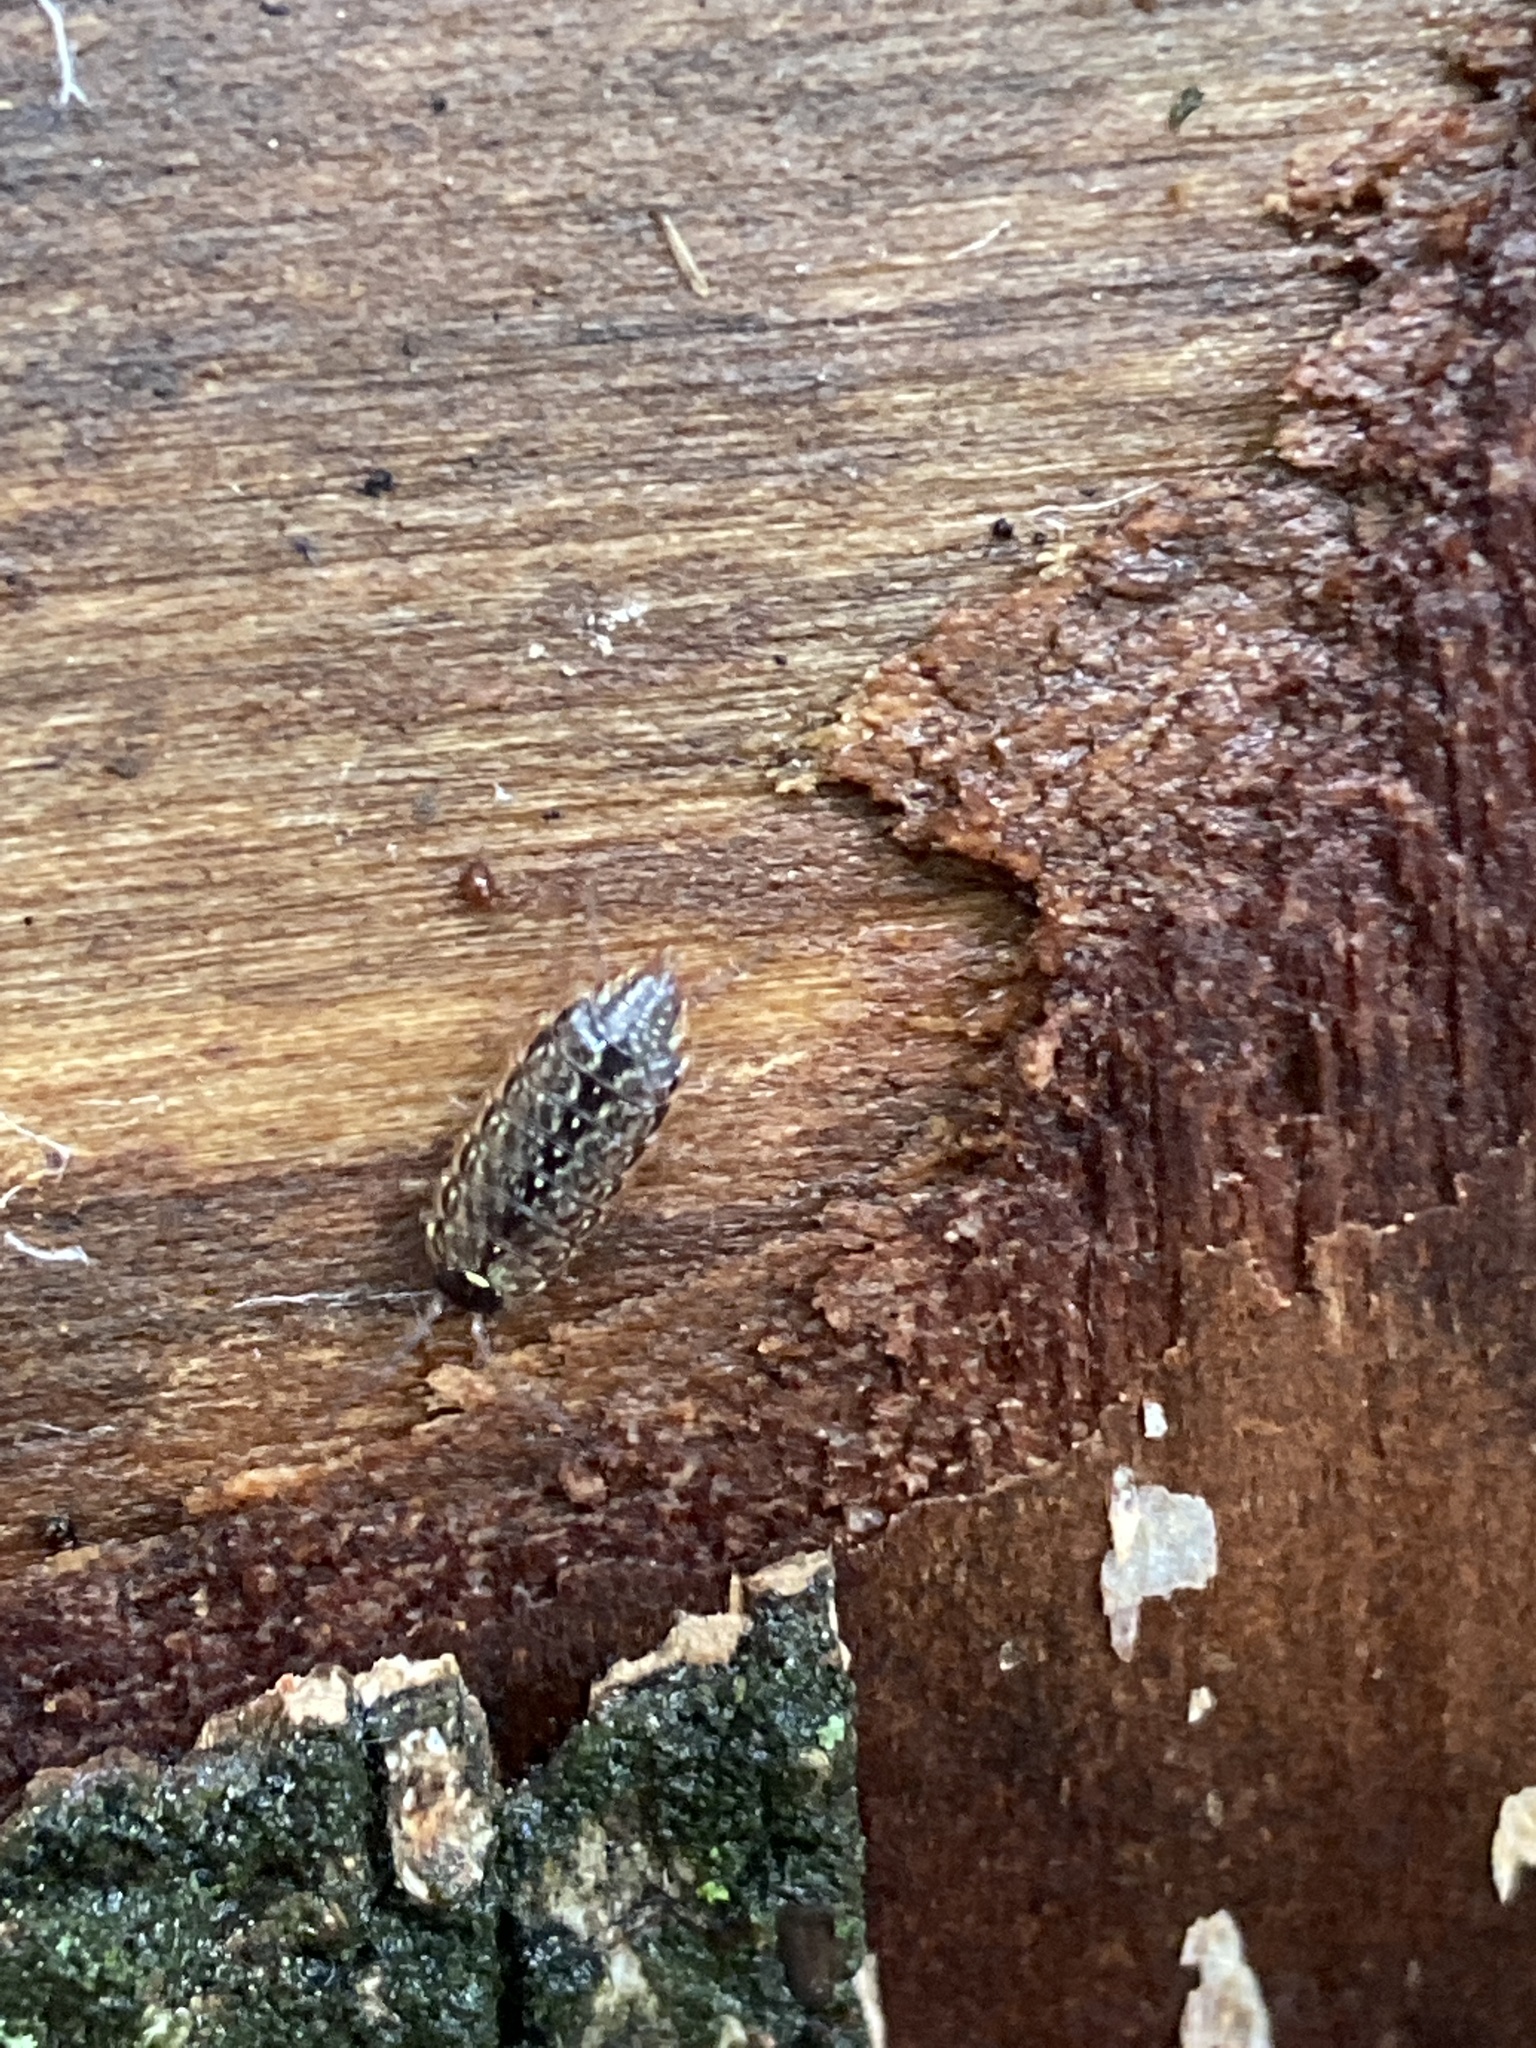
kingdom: Animalia
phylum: Arthropoda
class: Malacostraca
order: Isopoda
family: Philosciidae
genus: Philoscia
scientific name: Philoscia muscorum
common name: Common striped woodlouse
